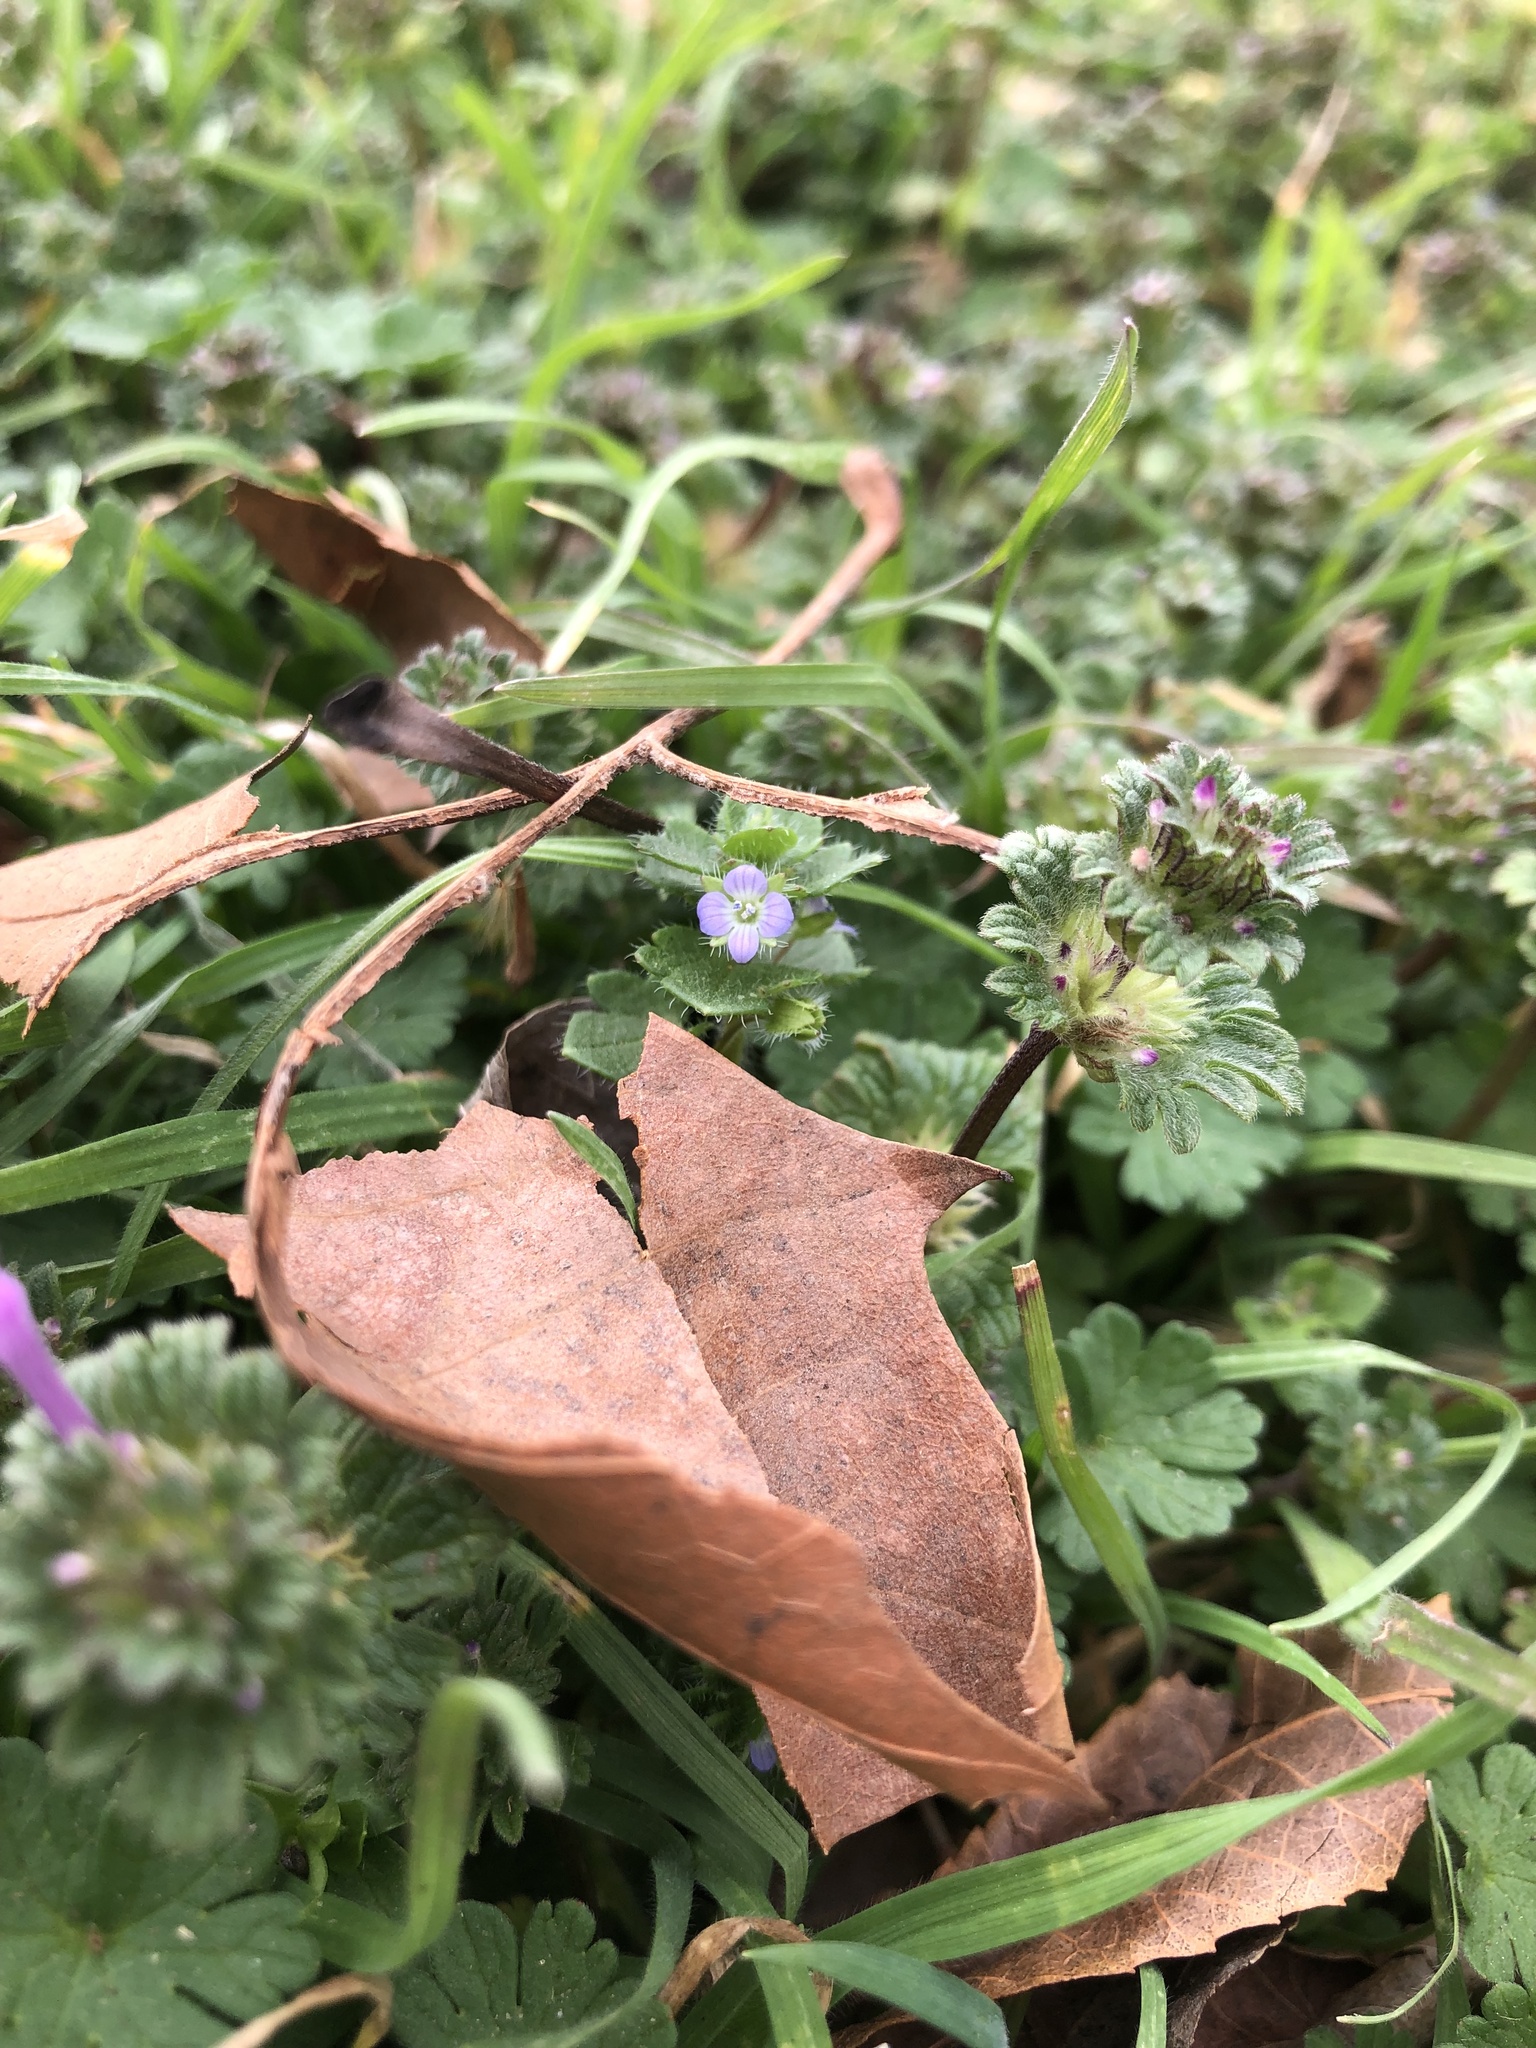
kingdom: Plantae
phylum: Tracheophyta
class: Magnoliopsida
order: Lamiales
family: Plantaginaceae
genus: Veronica
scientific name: Veronica hederifolia
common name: Ivy-leaved speedwell
